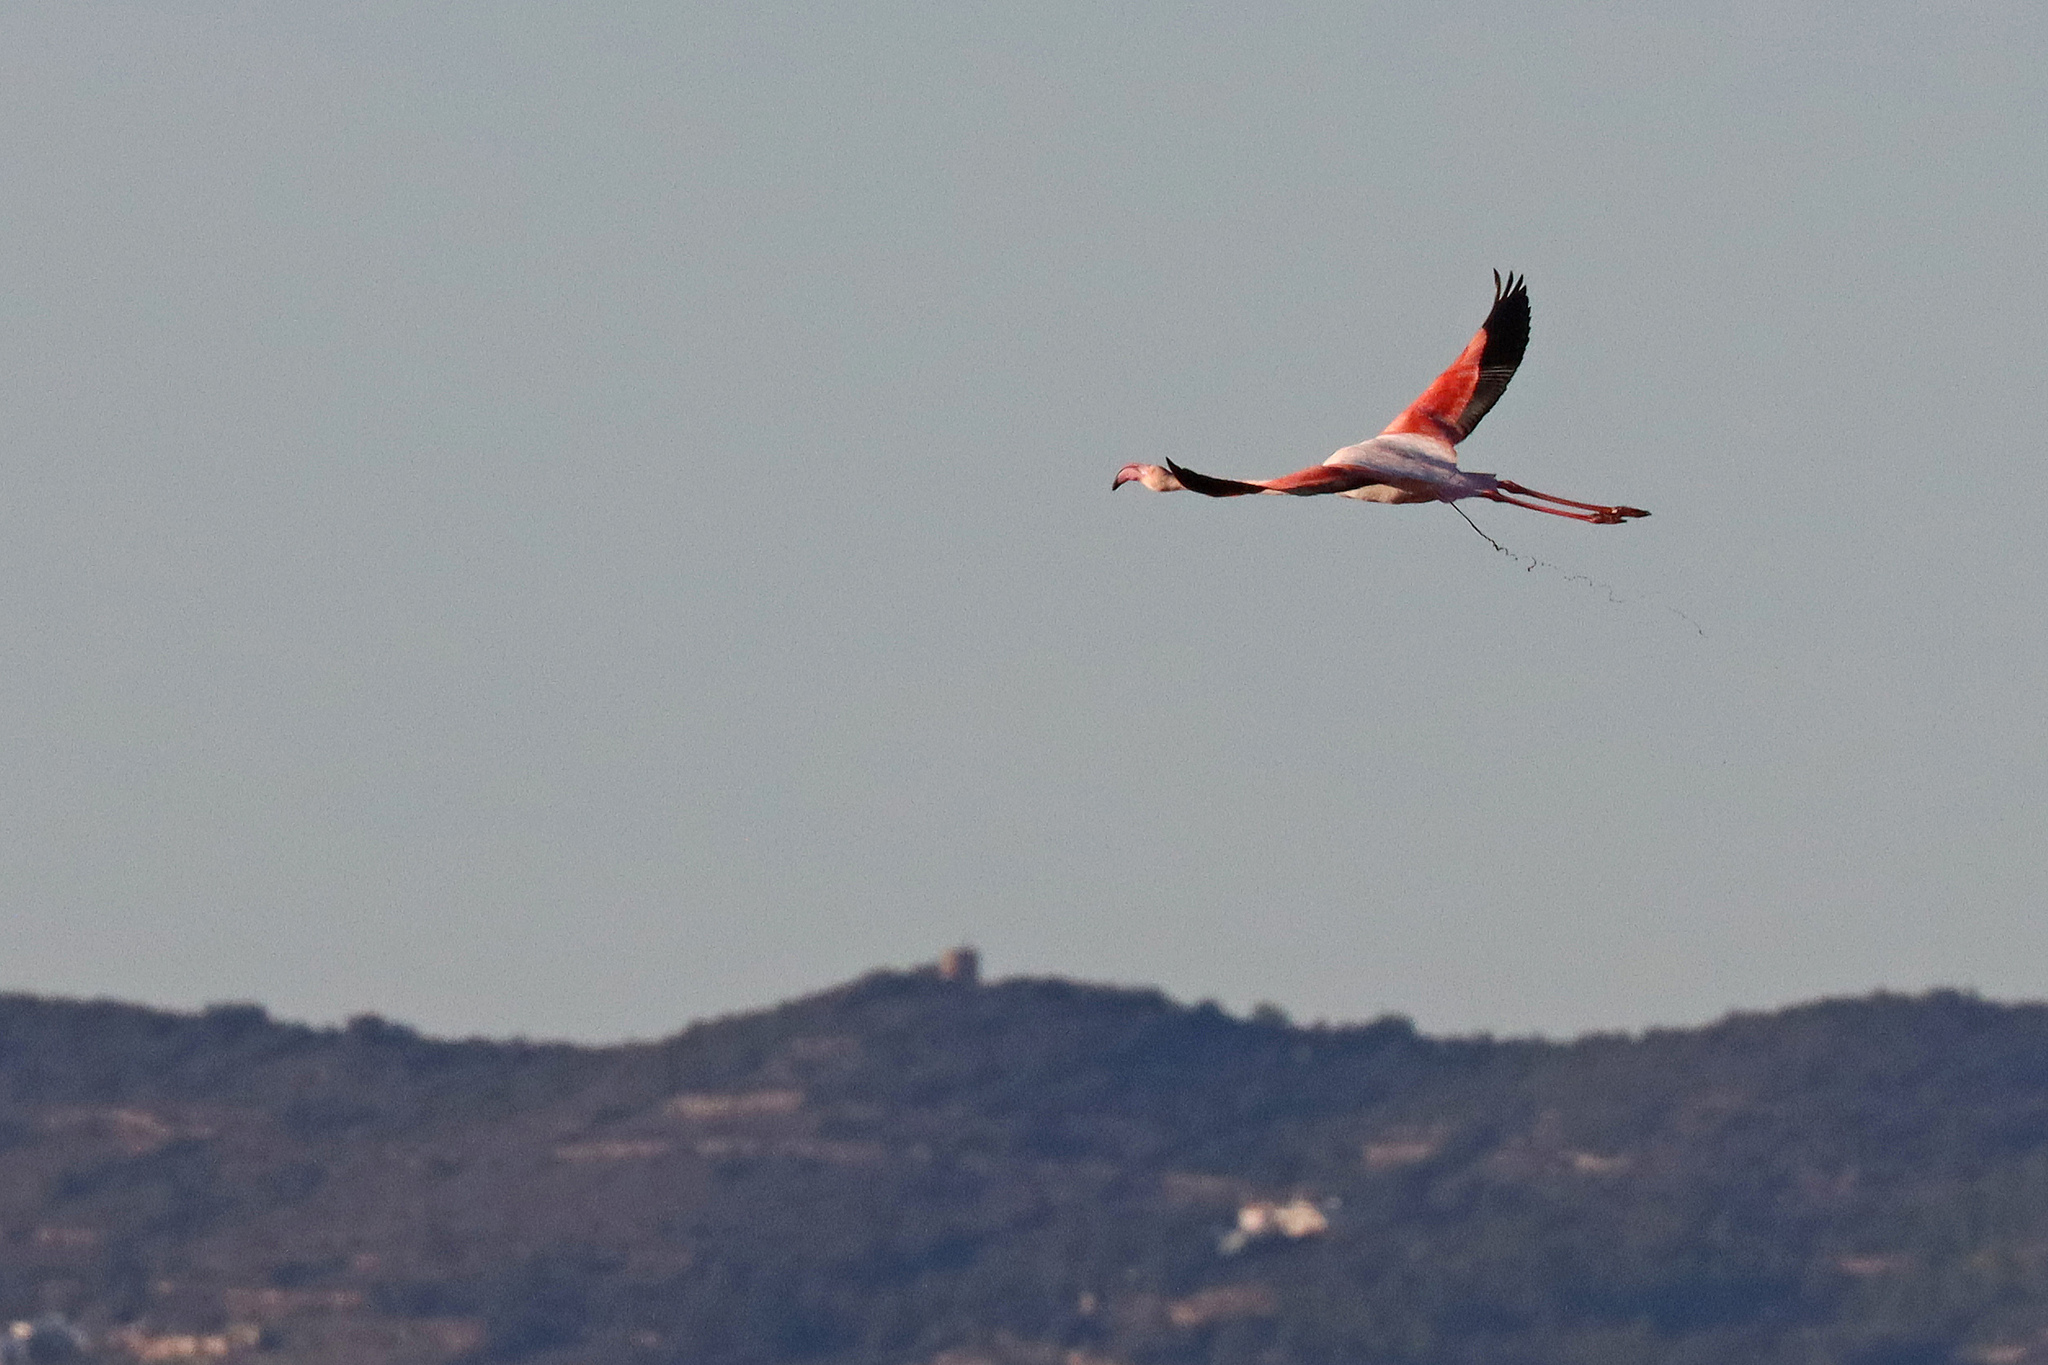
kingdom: Animalia
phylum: Chordata
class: Aves
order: Phoenicopteriformes
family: Phoenicopteridae
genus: Phoenicopterus
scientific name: Phoenicopterus roseus
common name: Greater flamingo
